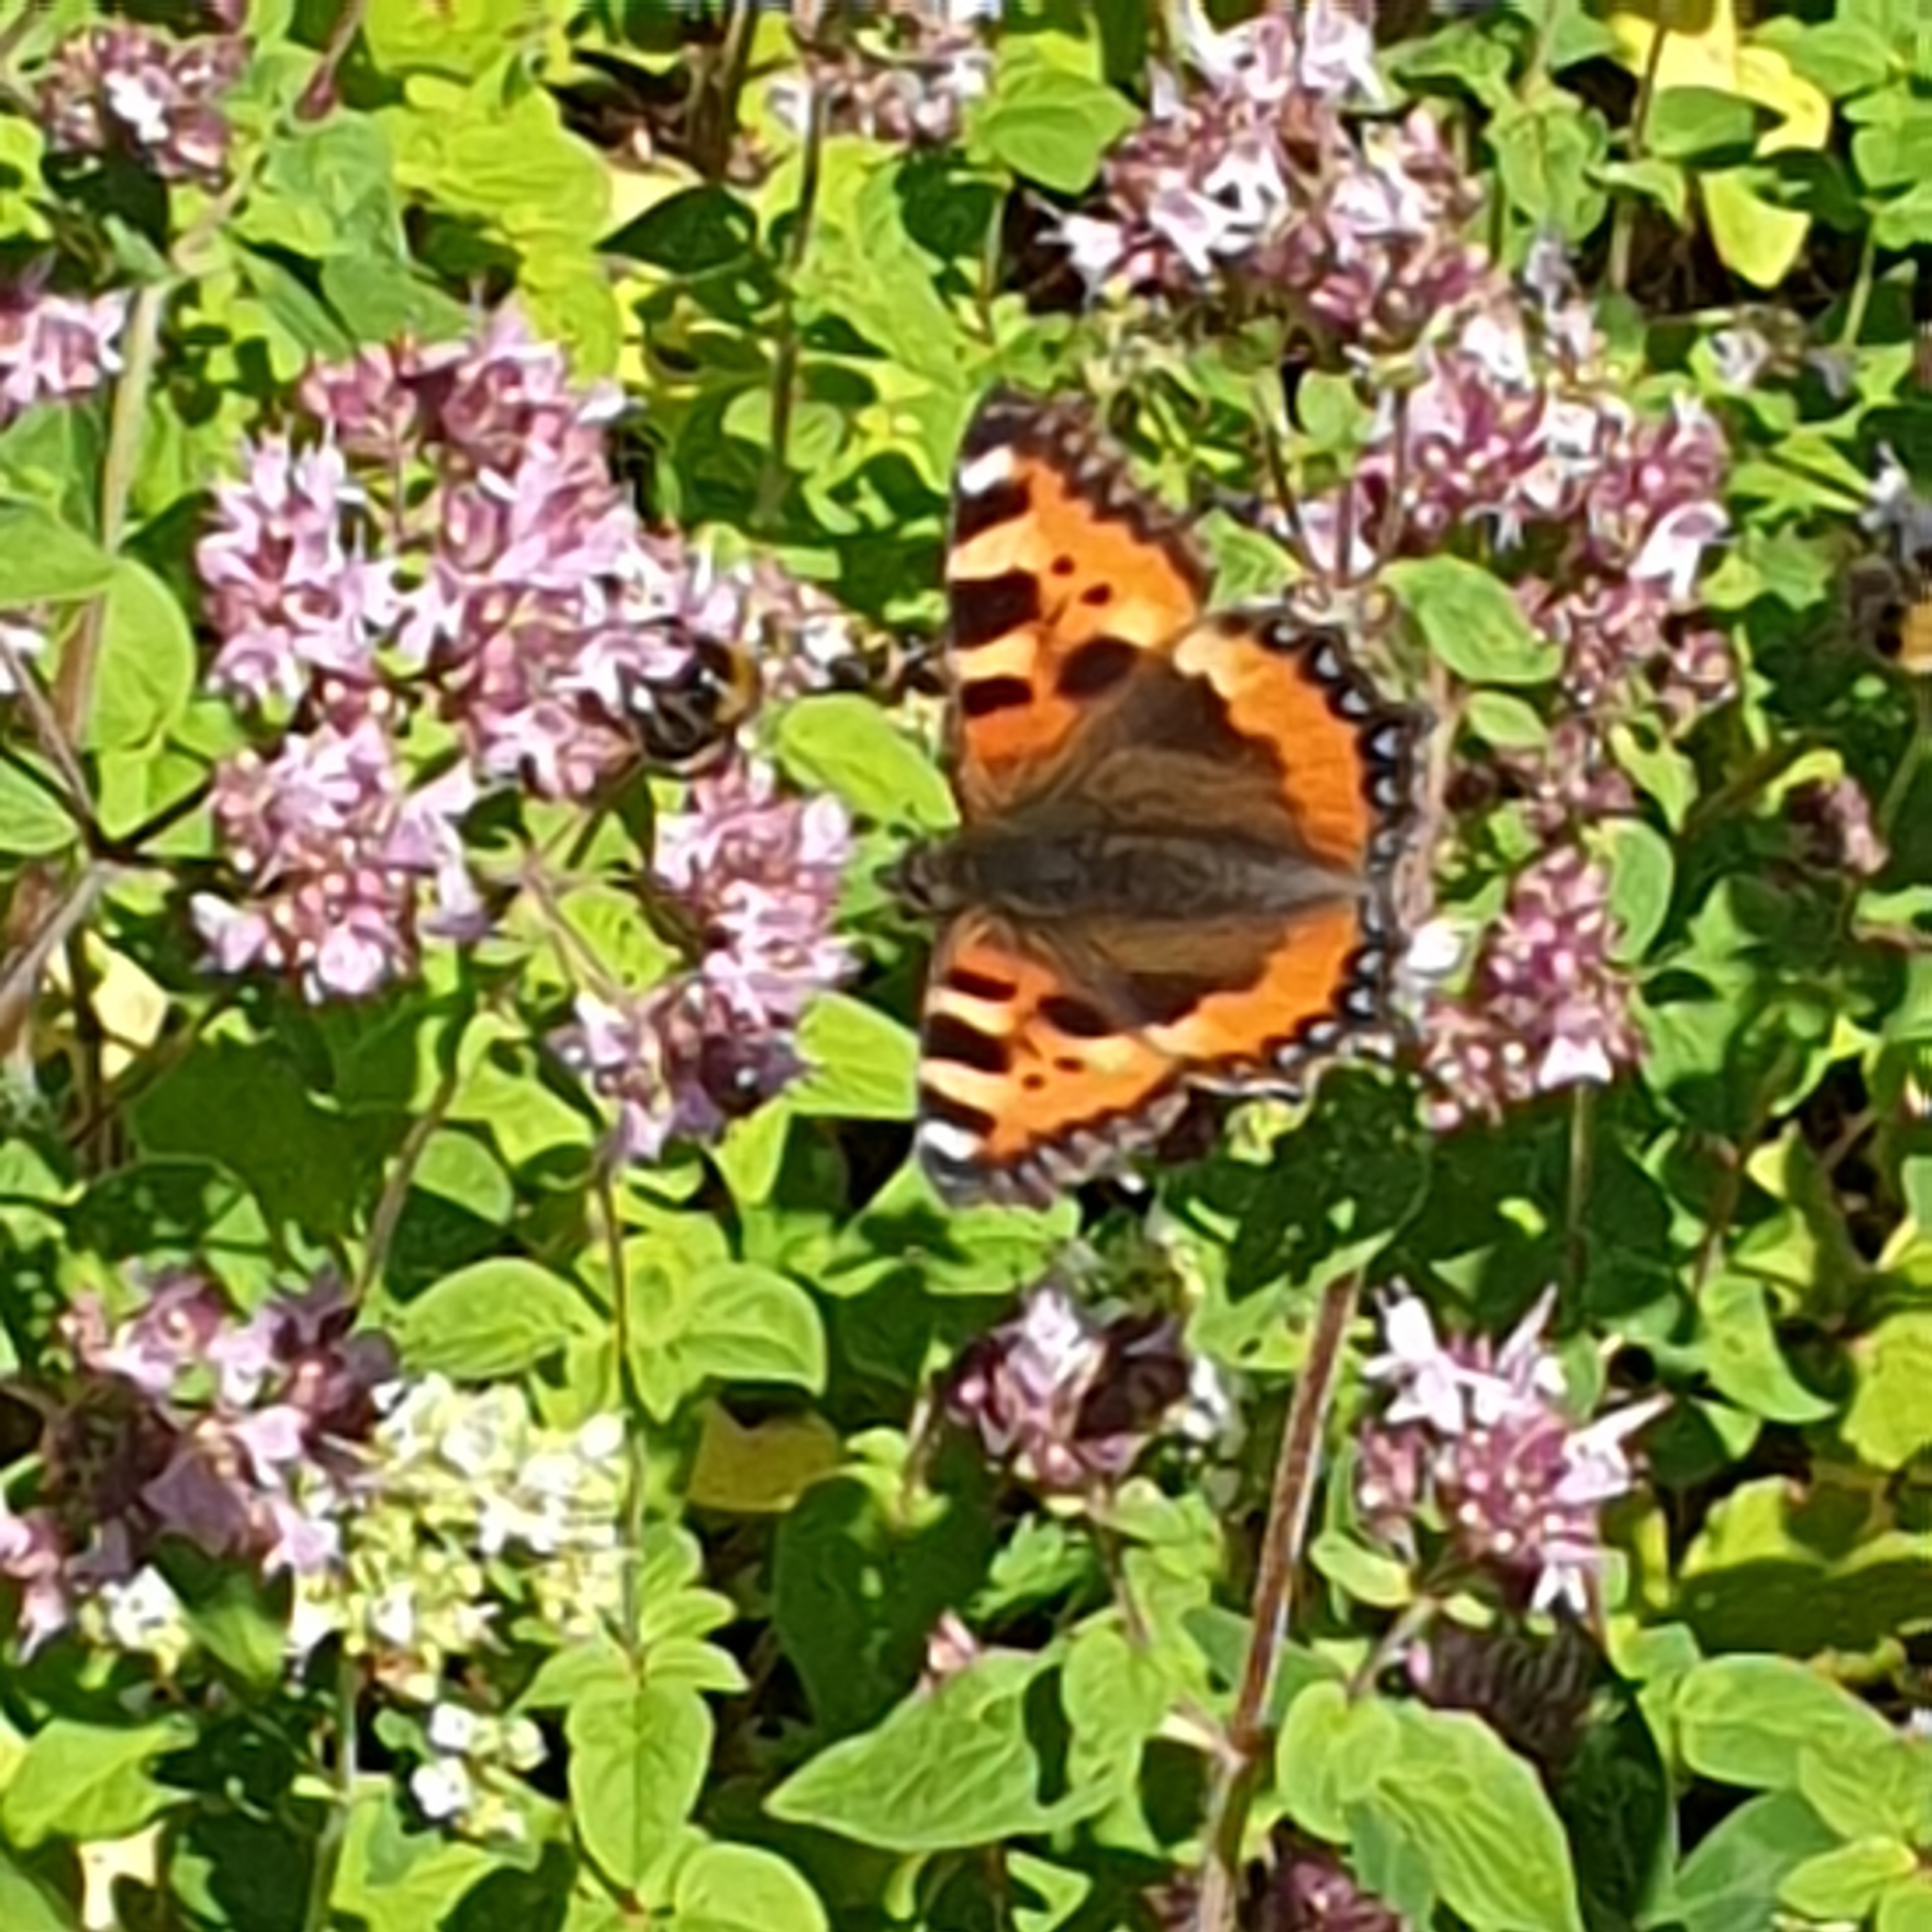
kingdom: Animalia
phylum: Arthropoda
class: Insecta
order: Lepidoptera
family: Nymphalidae
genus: Aglais
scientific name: Aglais urticae
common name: Small tortoiseshell
